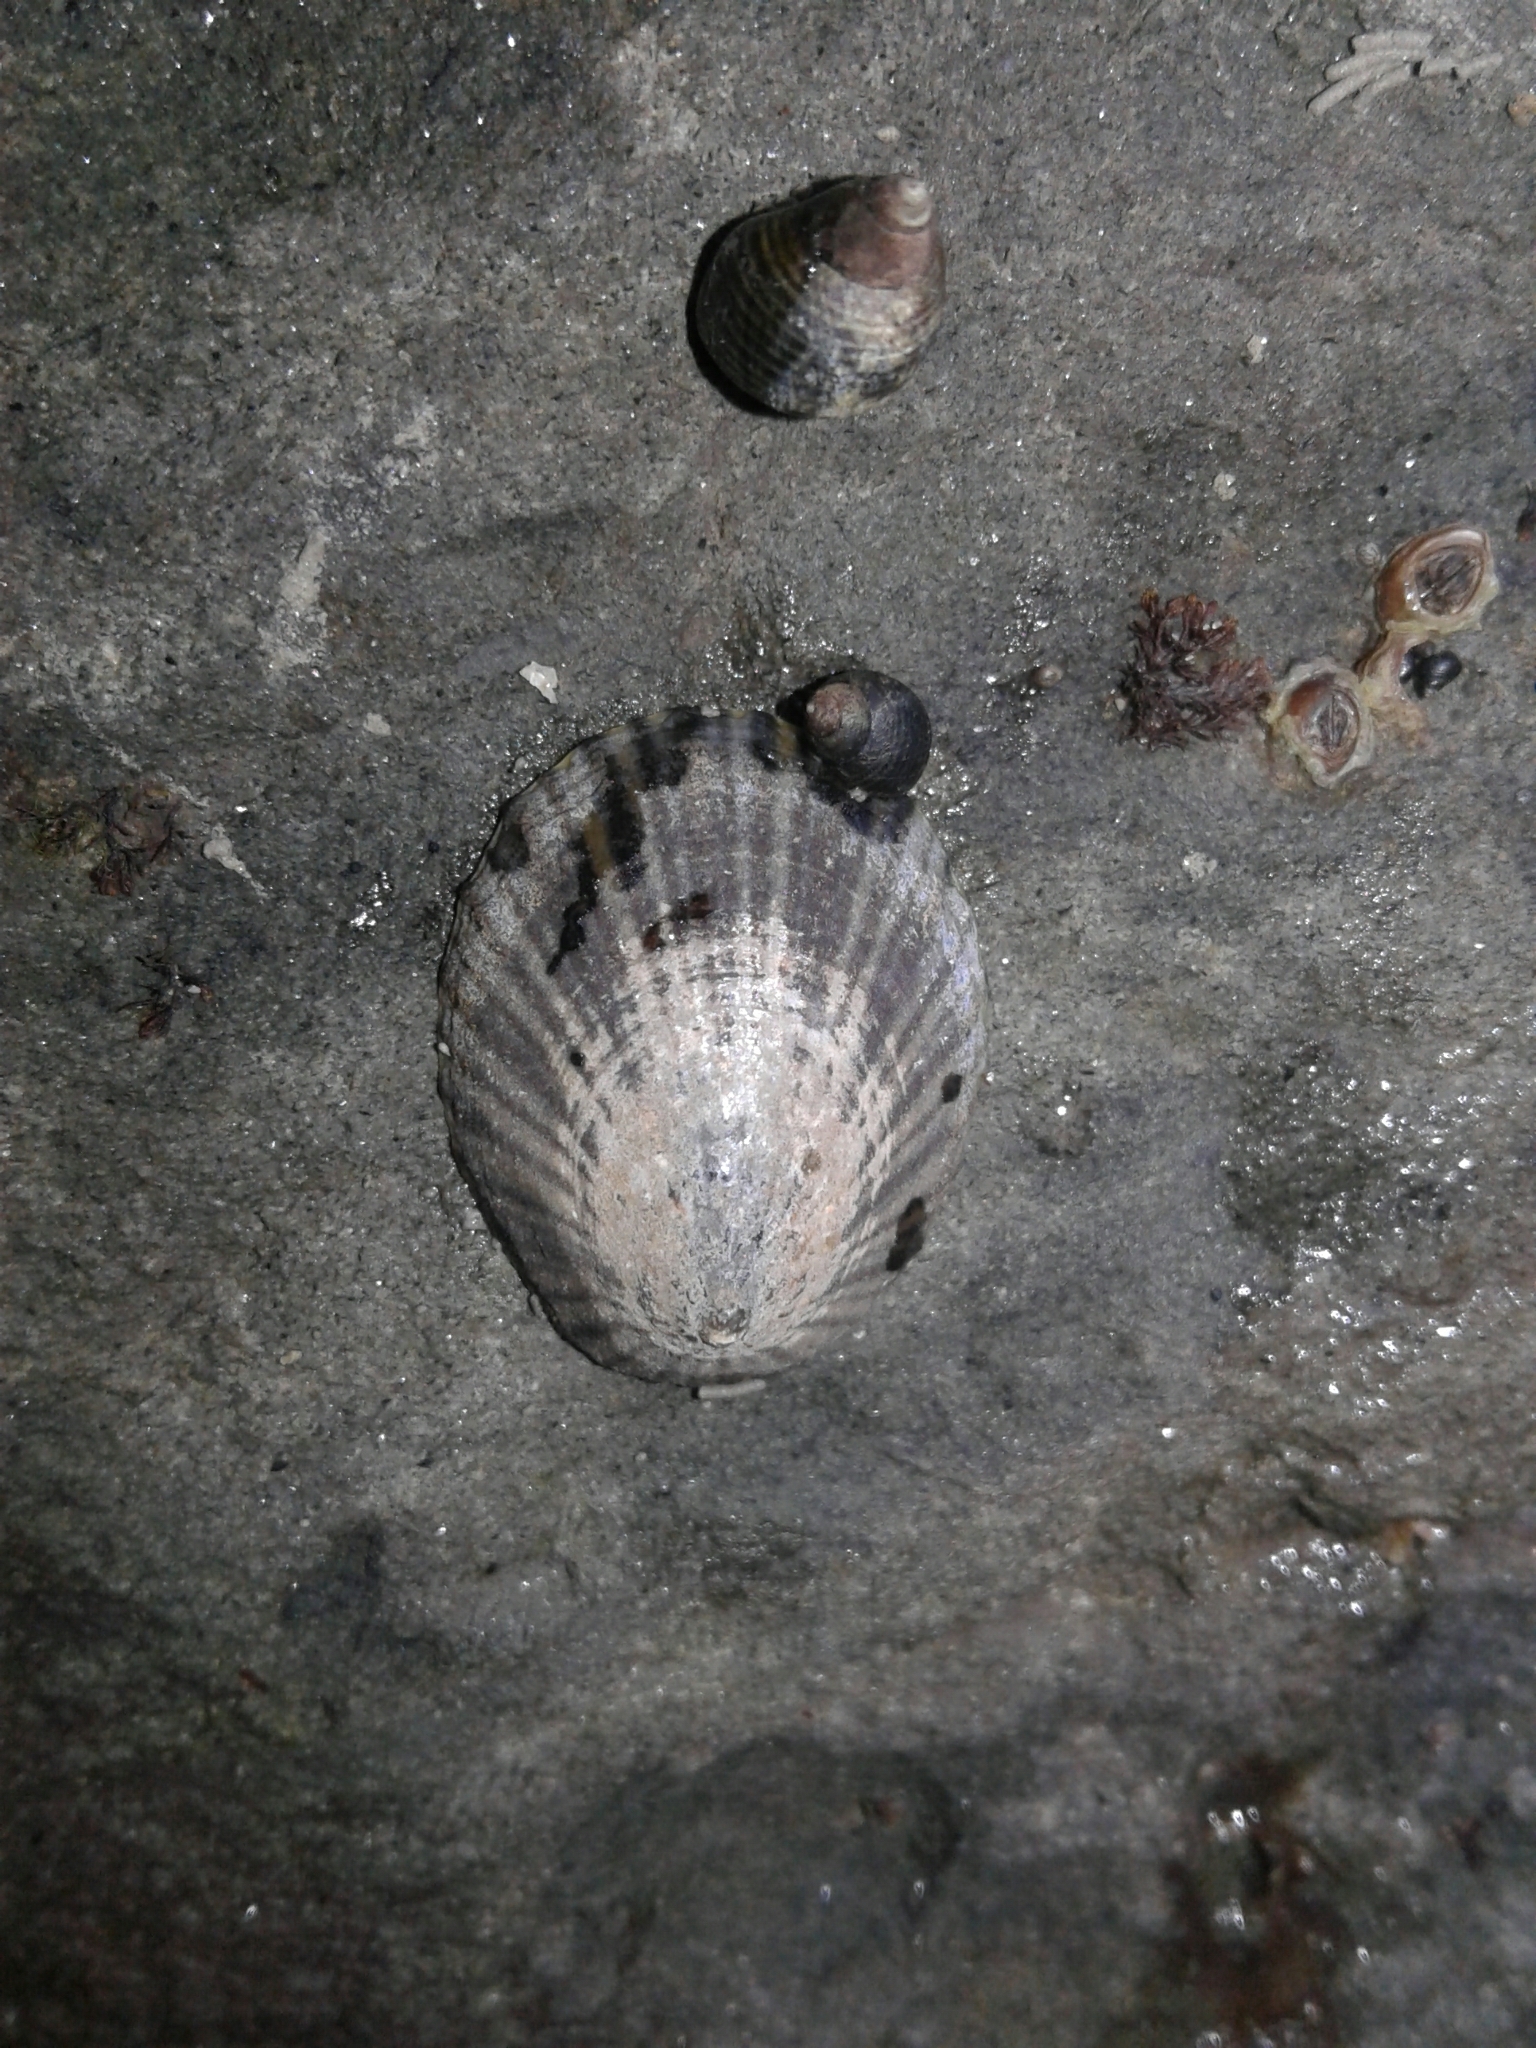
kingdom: Animalia
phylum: Mollusca
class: Gastropoda
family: Nacellidae
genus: Cellana
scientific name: Cellana radians
